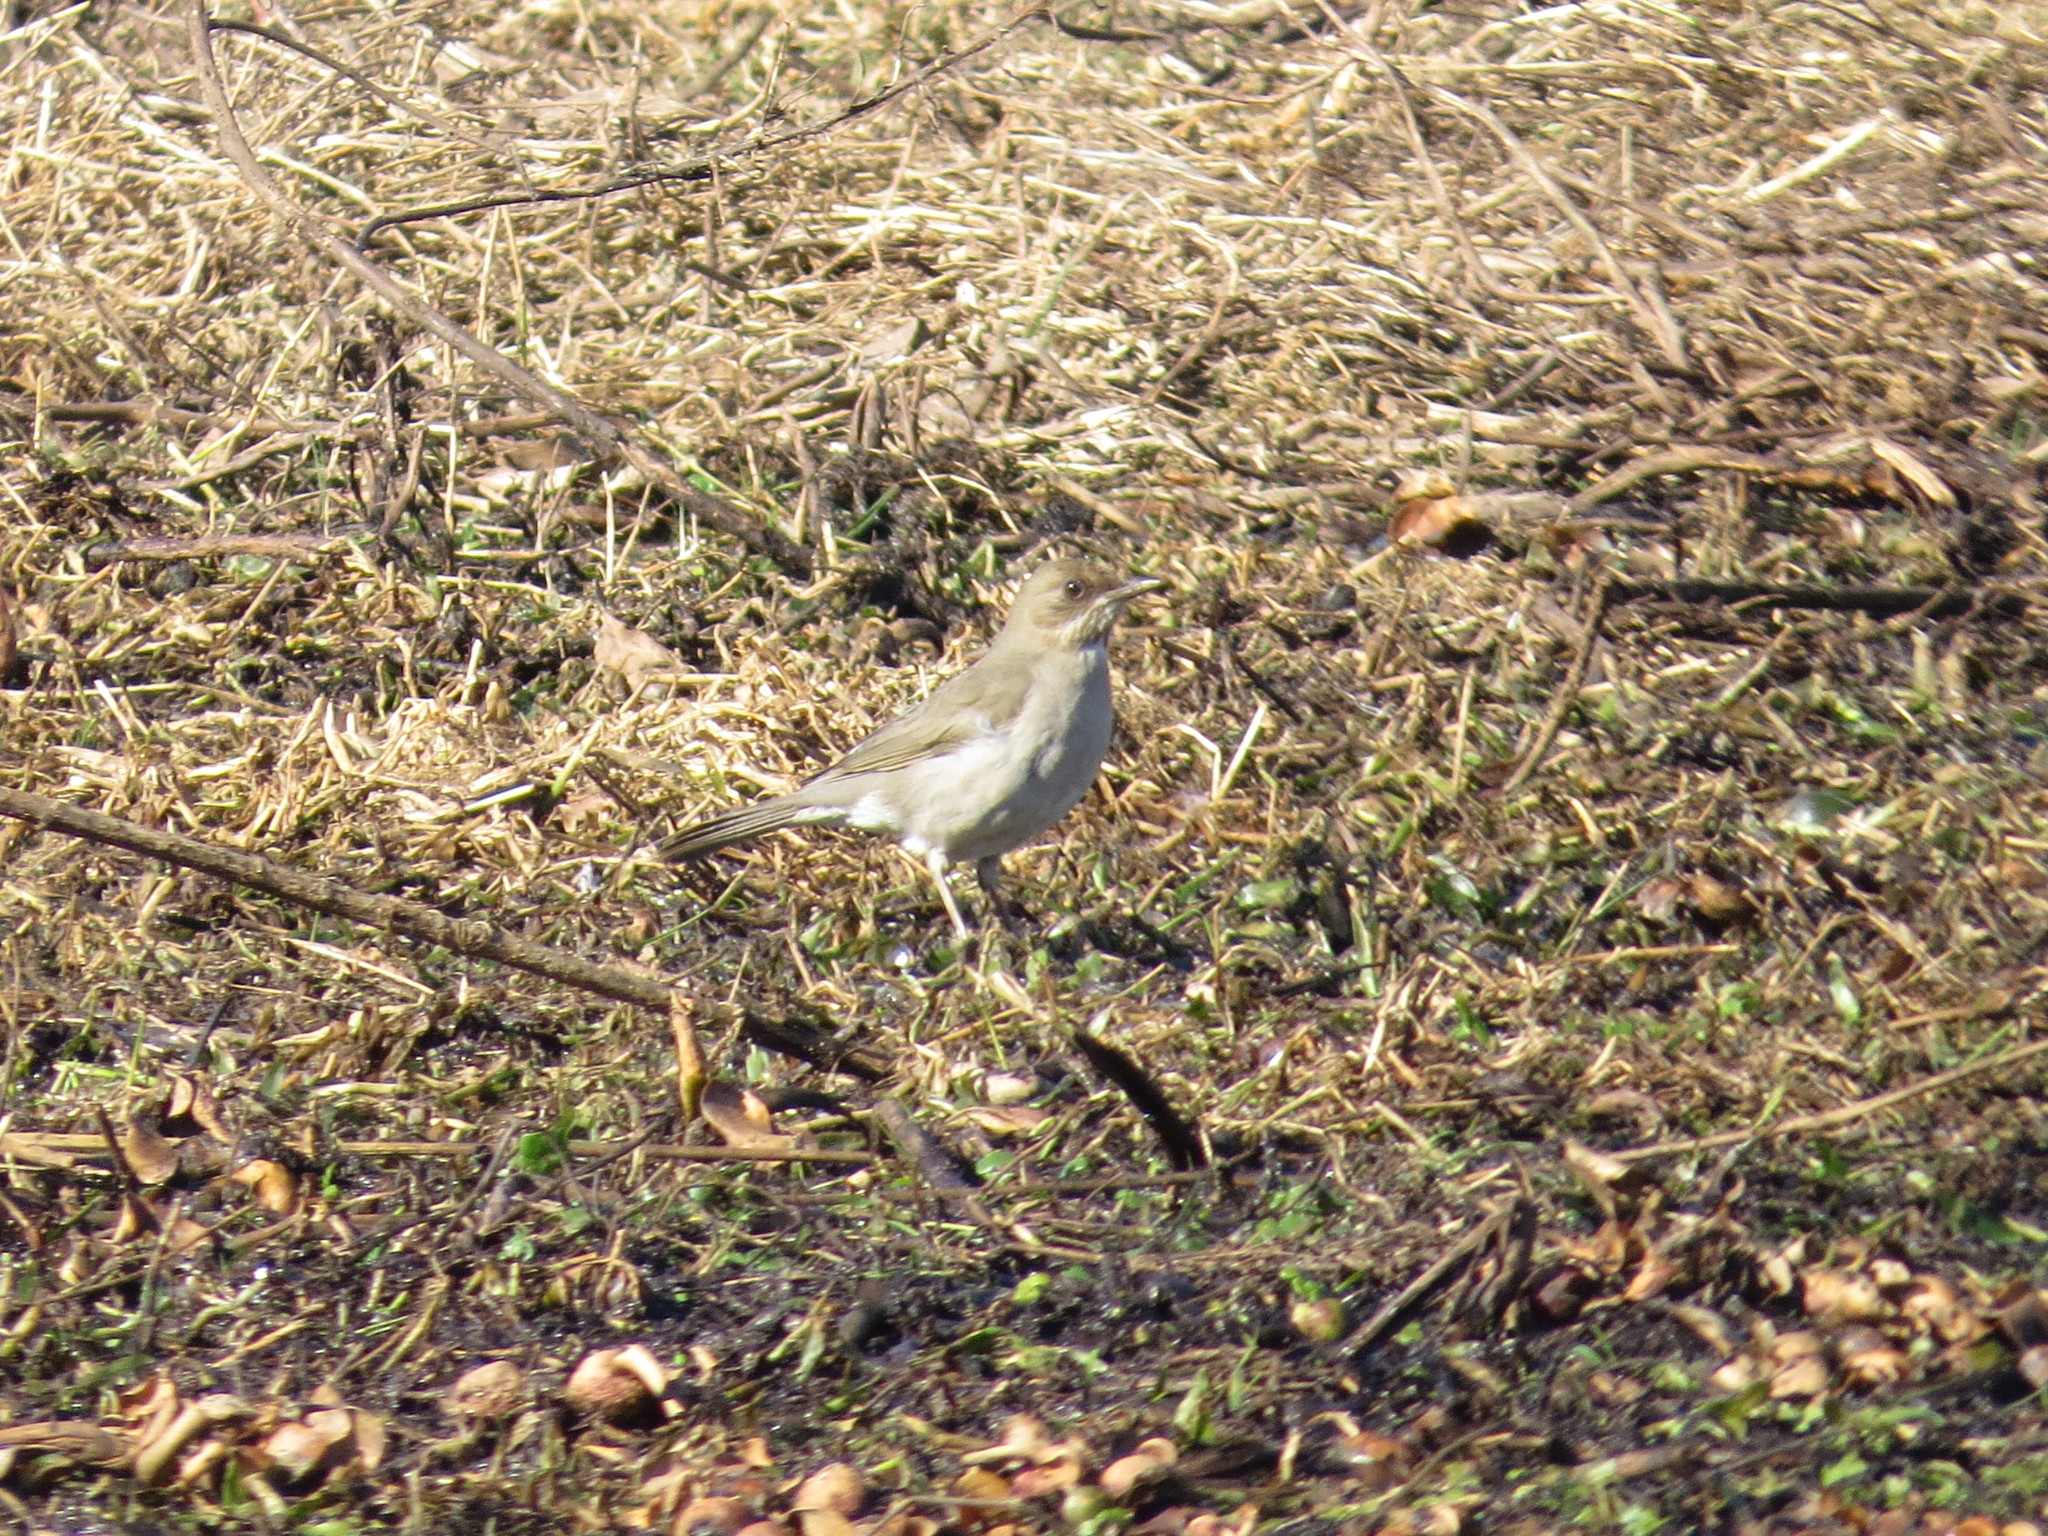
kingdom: Animalia
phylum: Chordata
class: Aves
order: Passeriformes
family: Turdidae
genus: Turdus
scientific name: Turdus amaurochalinus
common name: Creamy-bellied thrush
